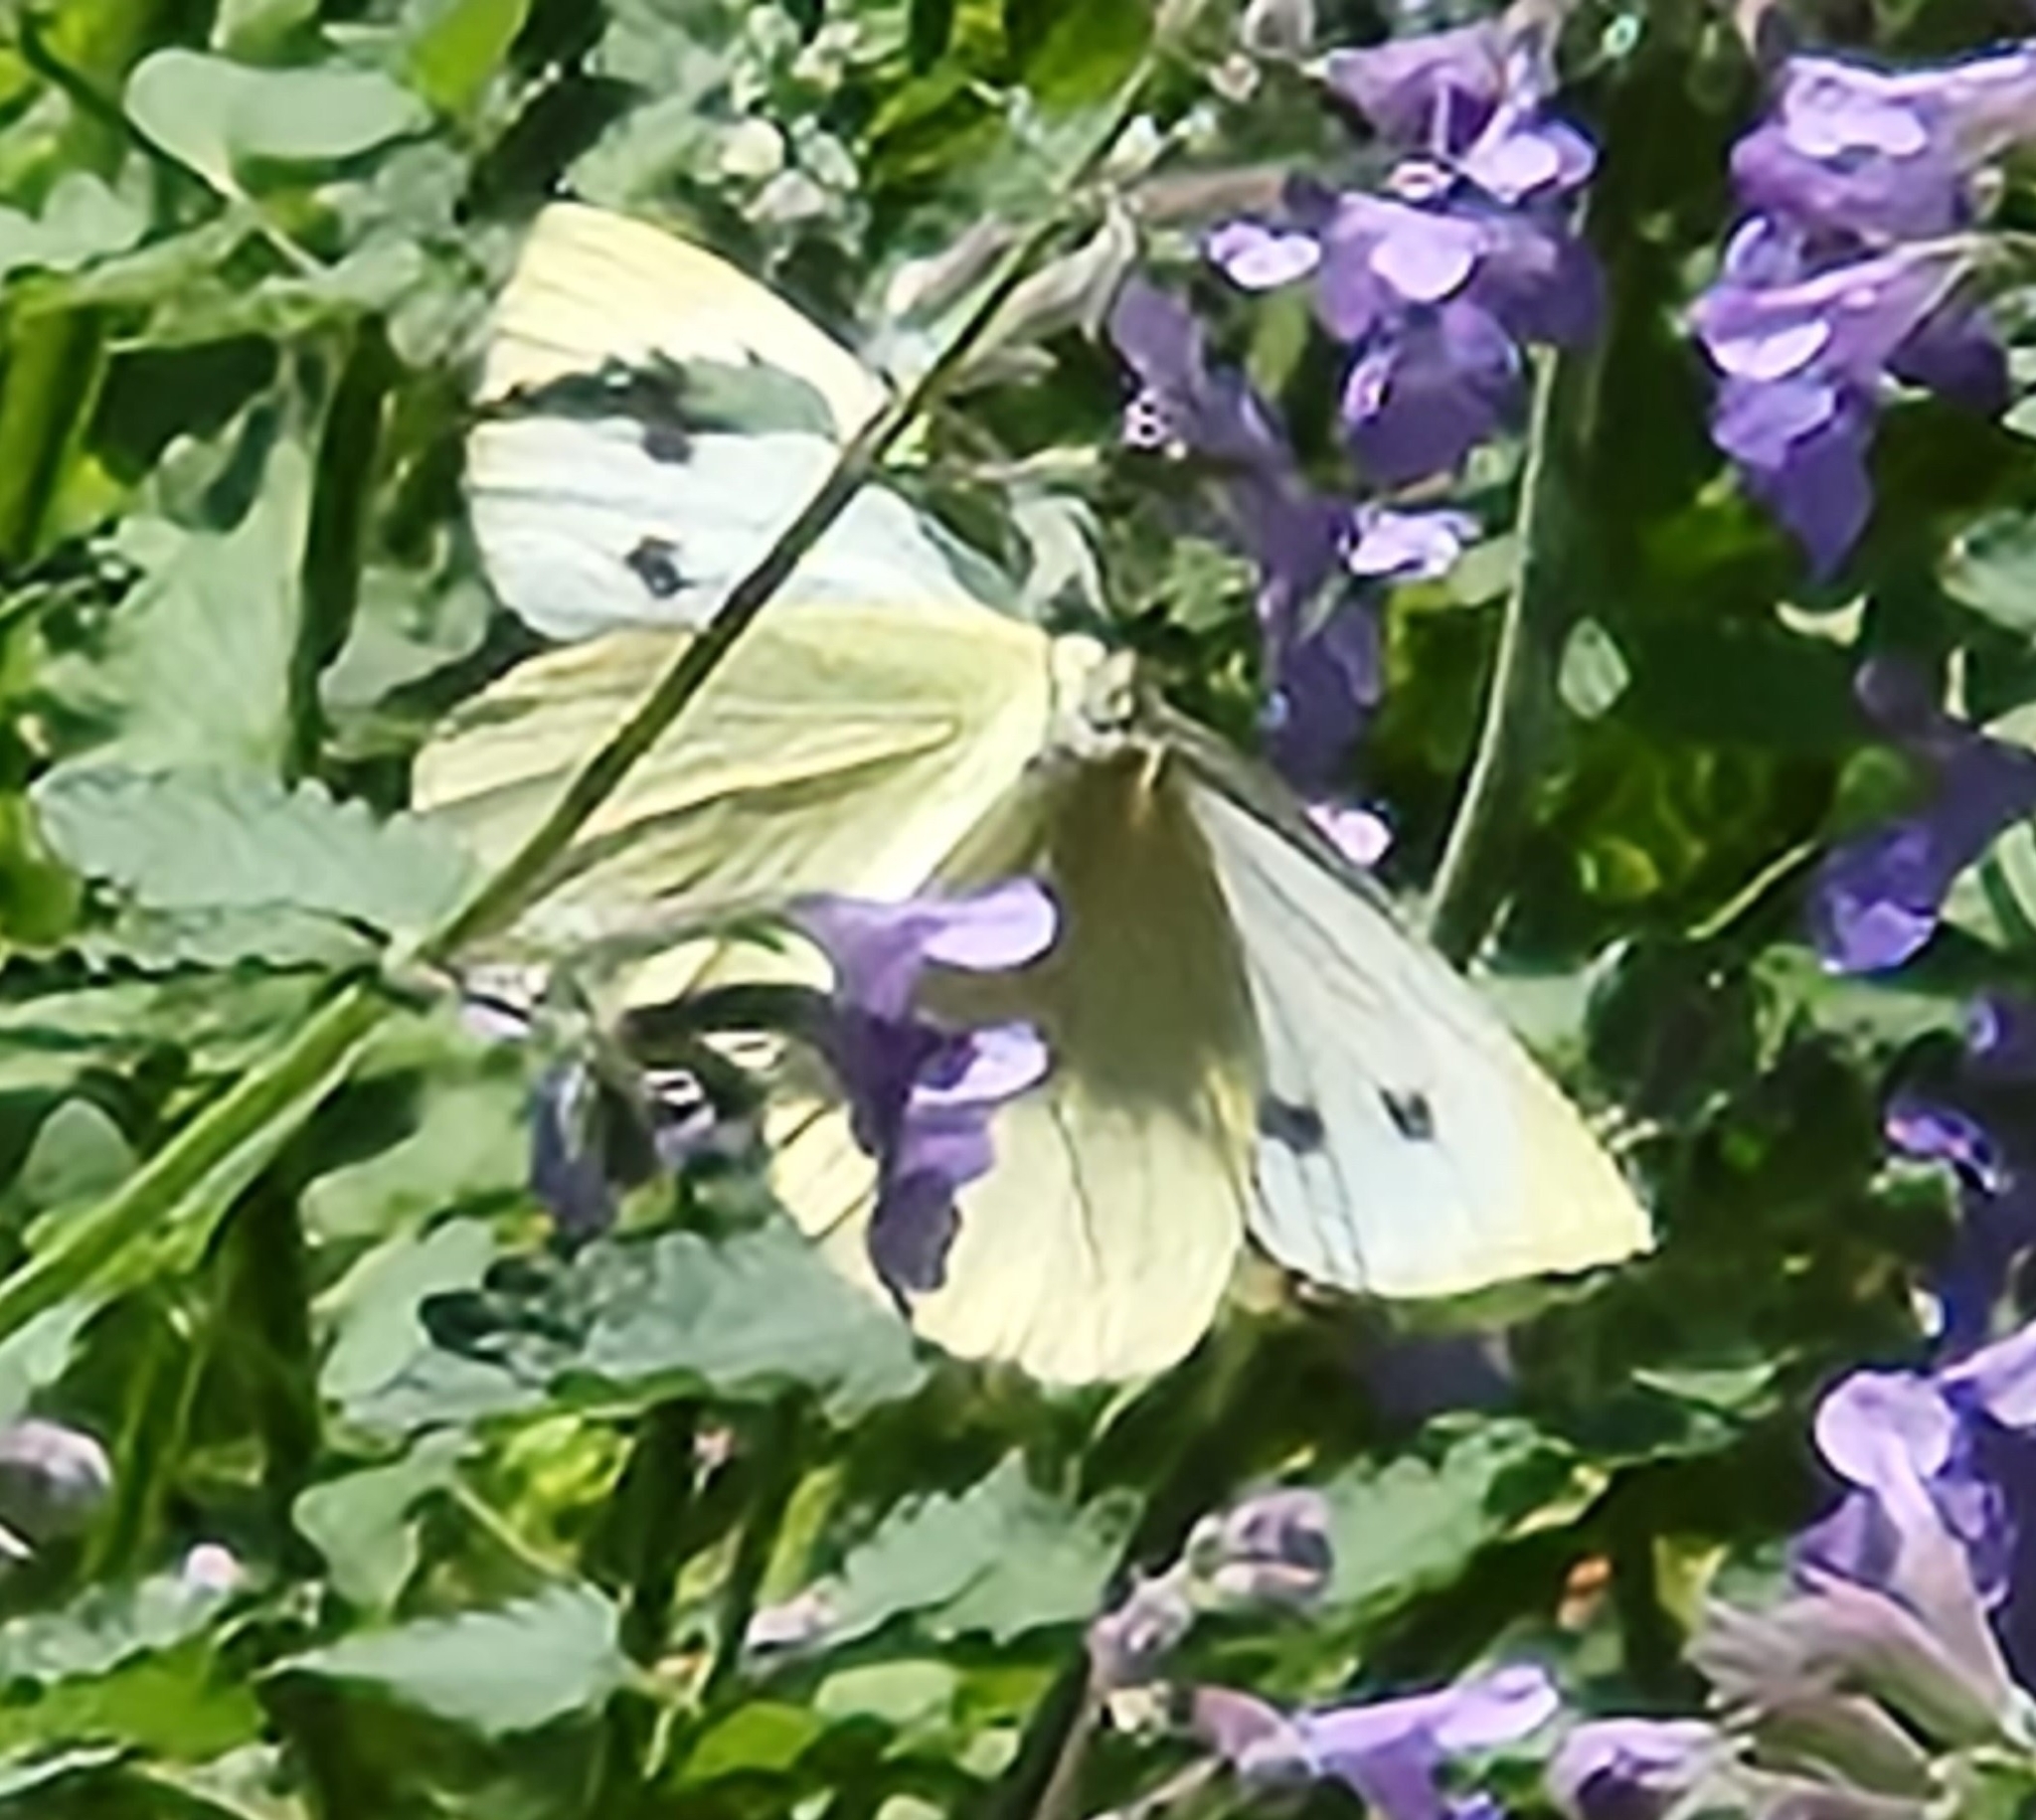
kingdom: Animalia
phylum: Arthropoda
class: Insecta
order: Lepidoptera
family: Pieridae
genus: Pieris
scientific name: Pieris rapae
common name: Small white
